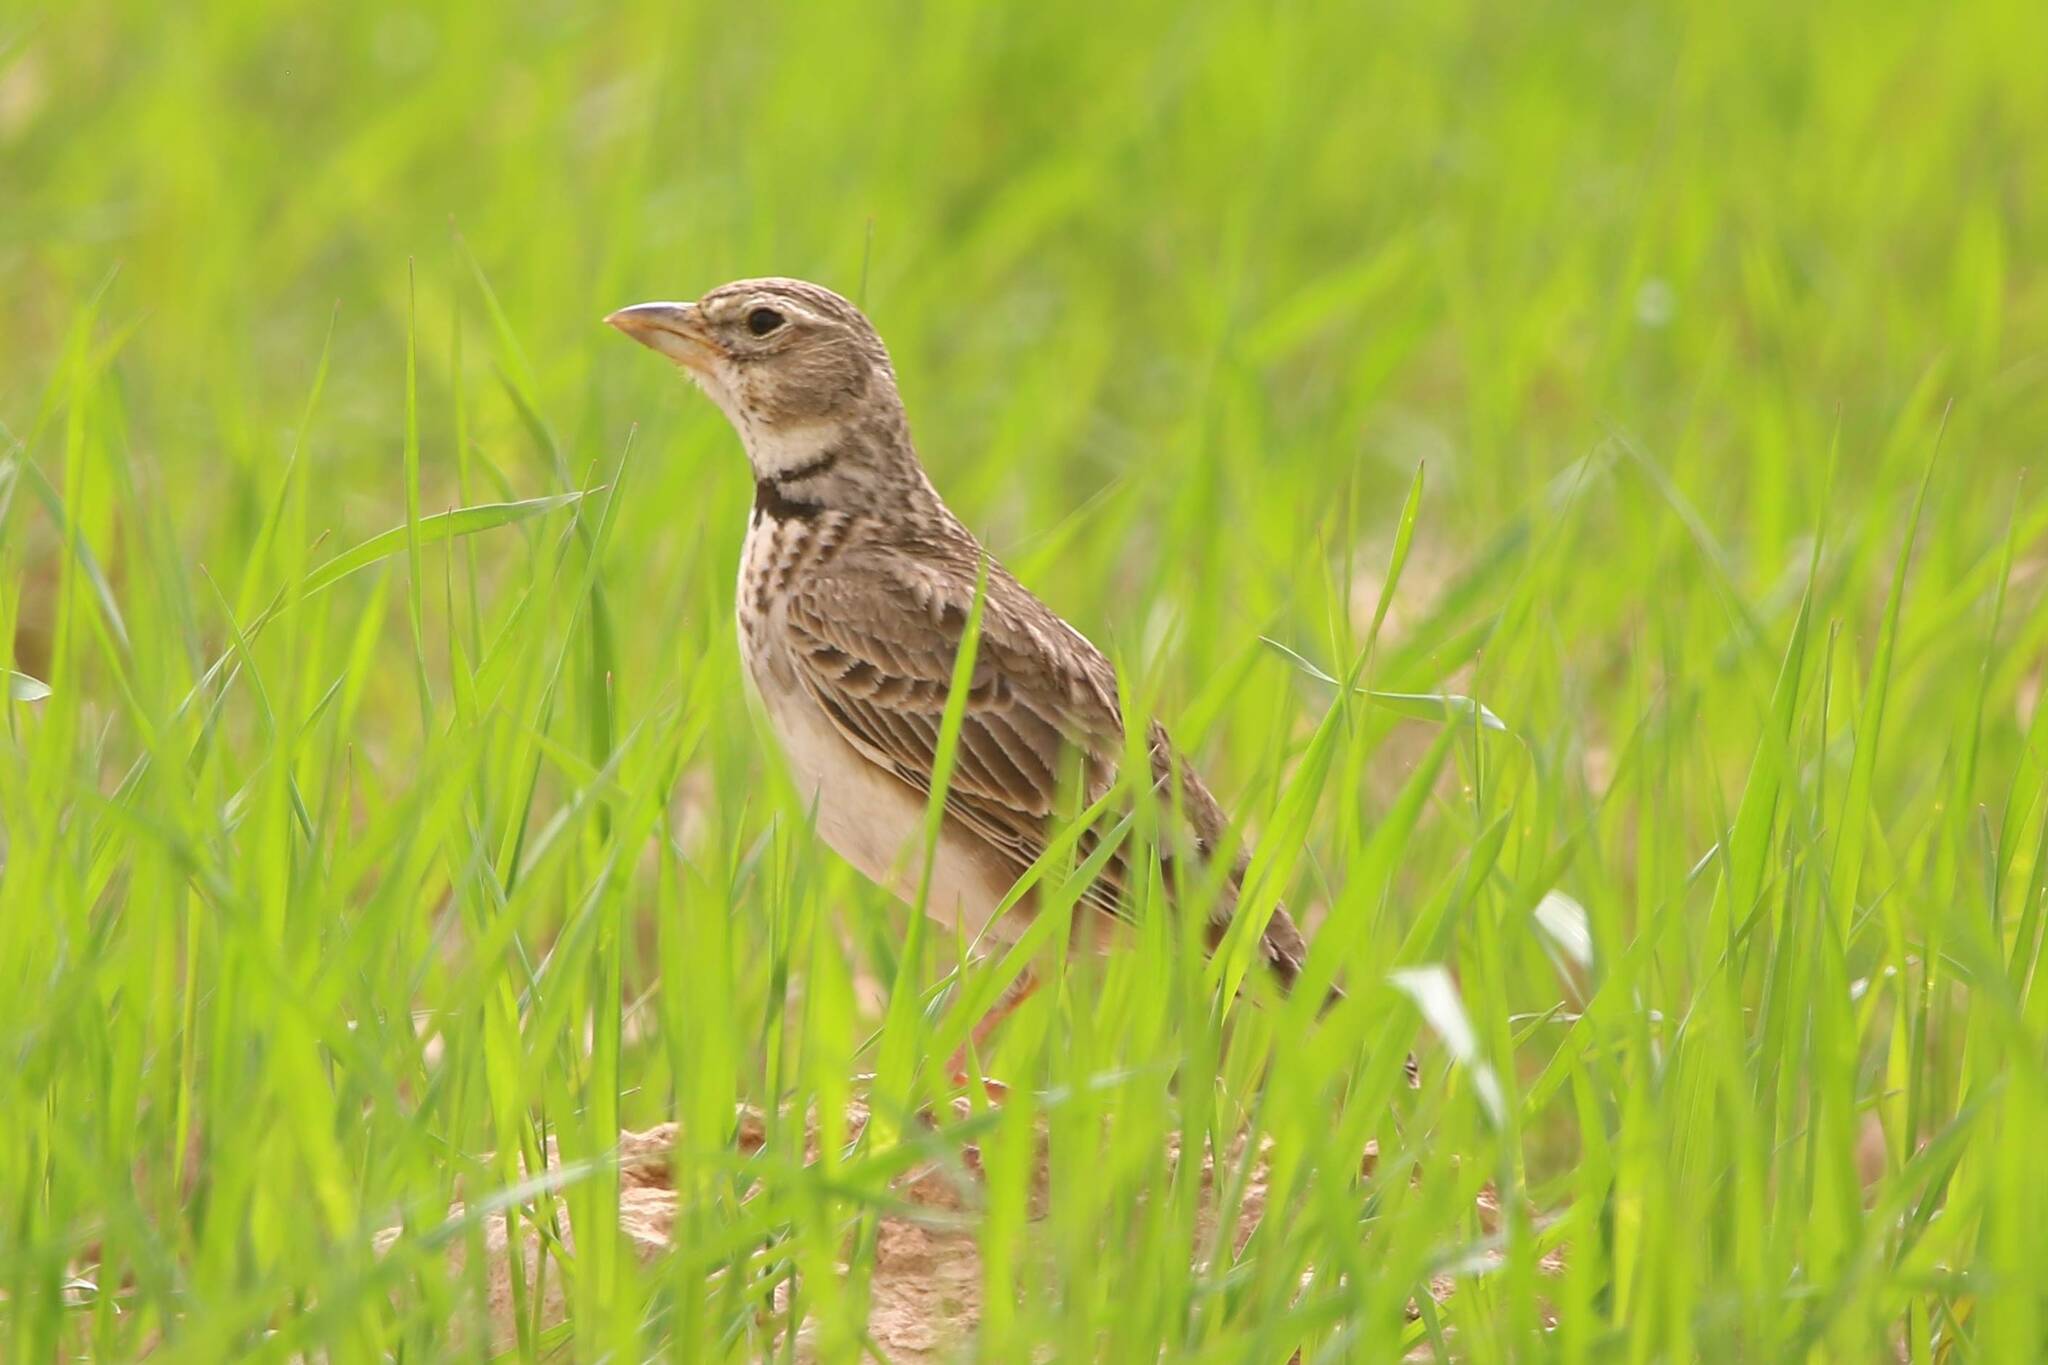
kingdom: Animalia
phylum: Chordata
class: Aves
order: Passeriformes
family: Alaudidae
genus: Melanocorypha
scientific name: Melanocorypha calandra
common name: Calandra lark
